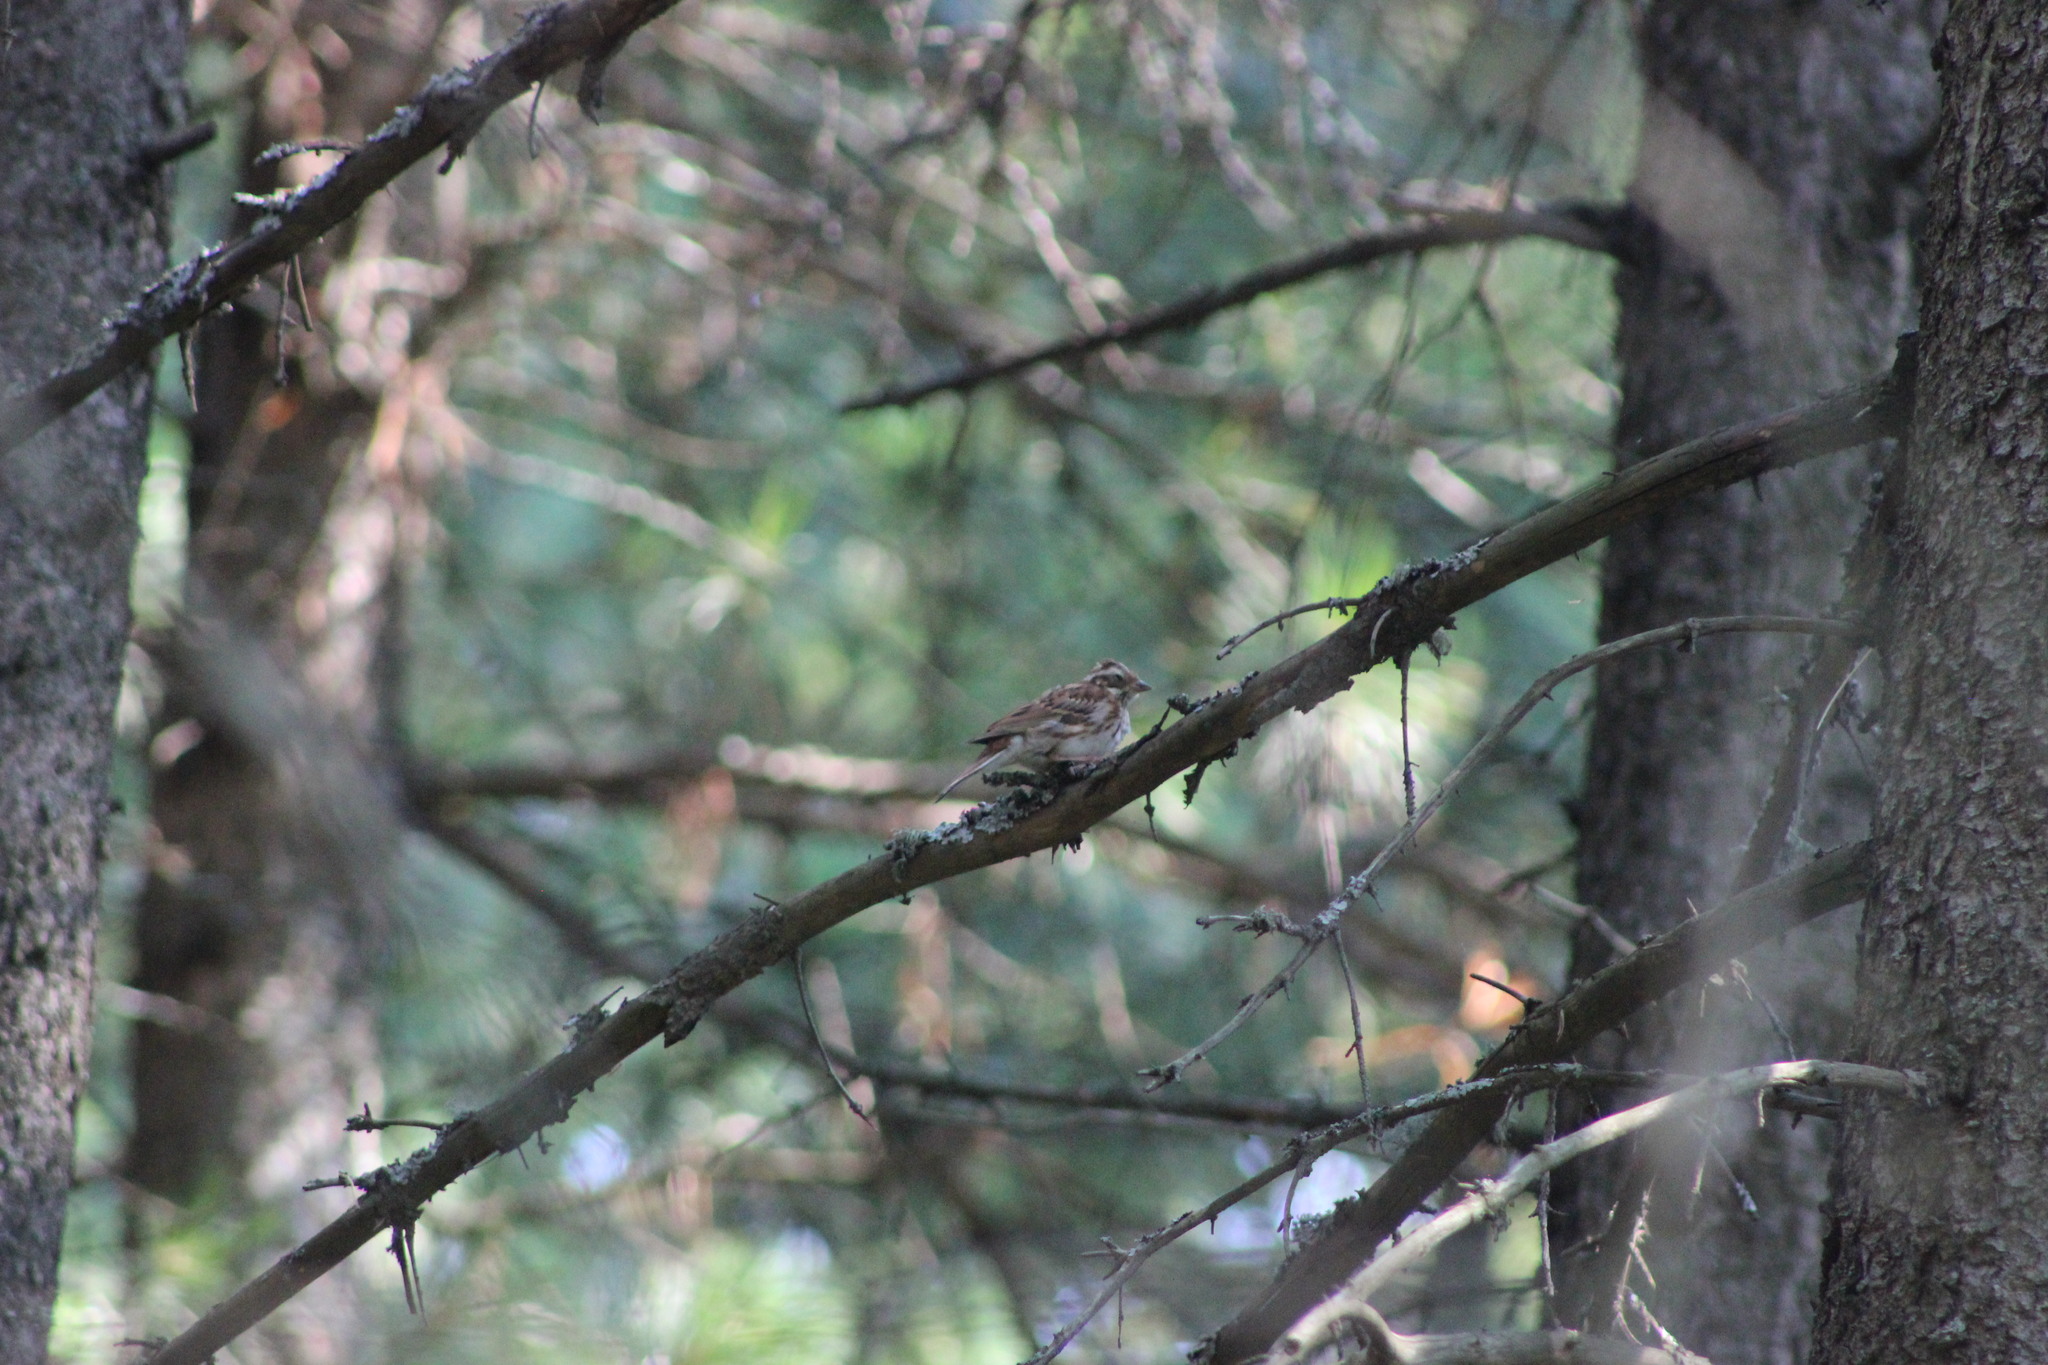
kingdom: Animalia
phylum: Chordata
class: Aves
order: Passeriformes
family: Emberizidae
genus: Emberiza
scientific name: Emberiza rustica
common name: Rustic bunting
